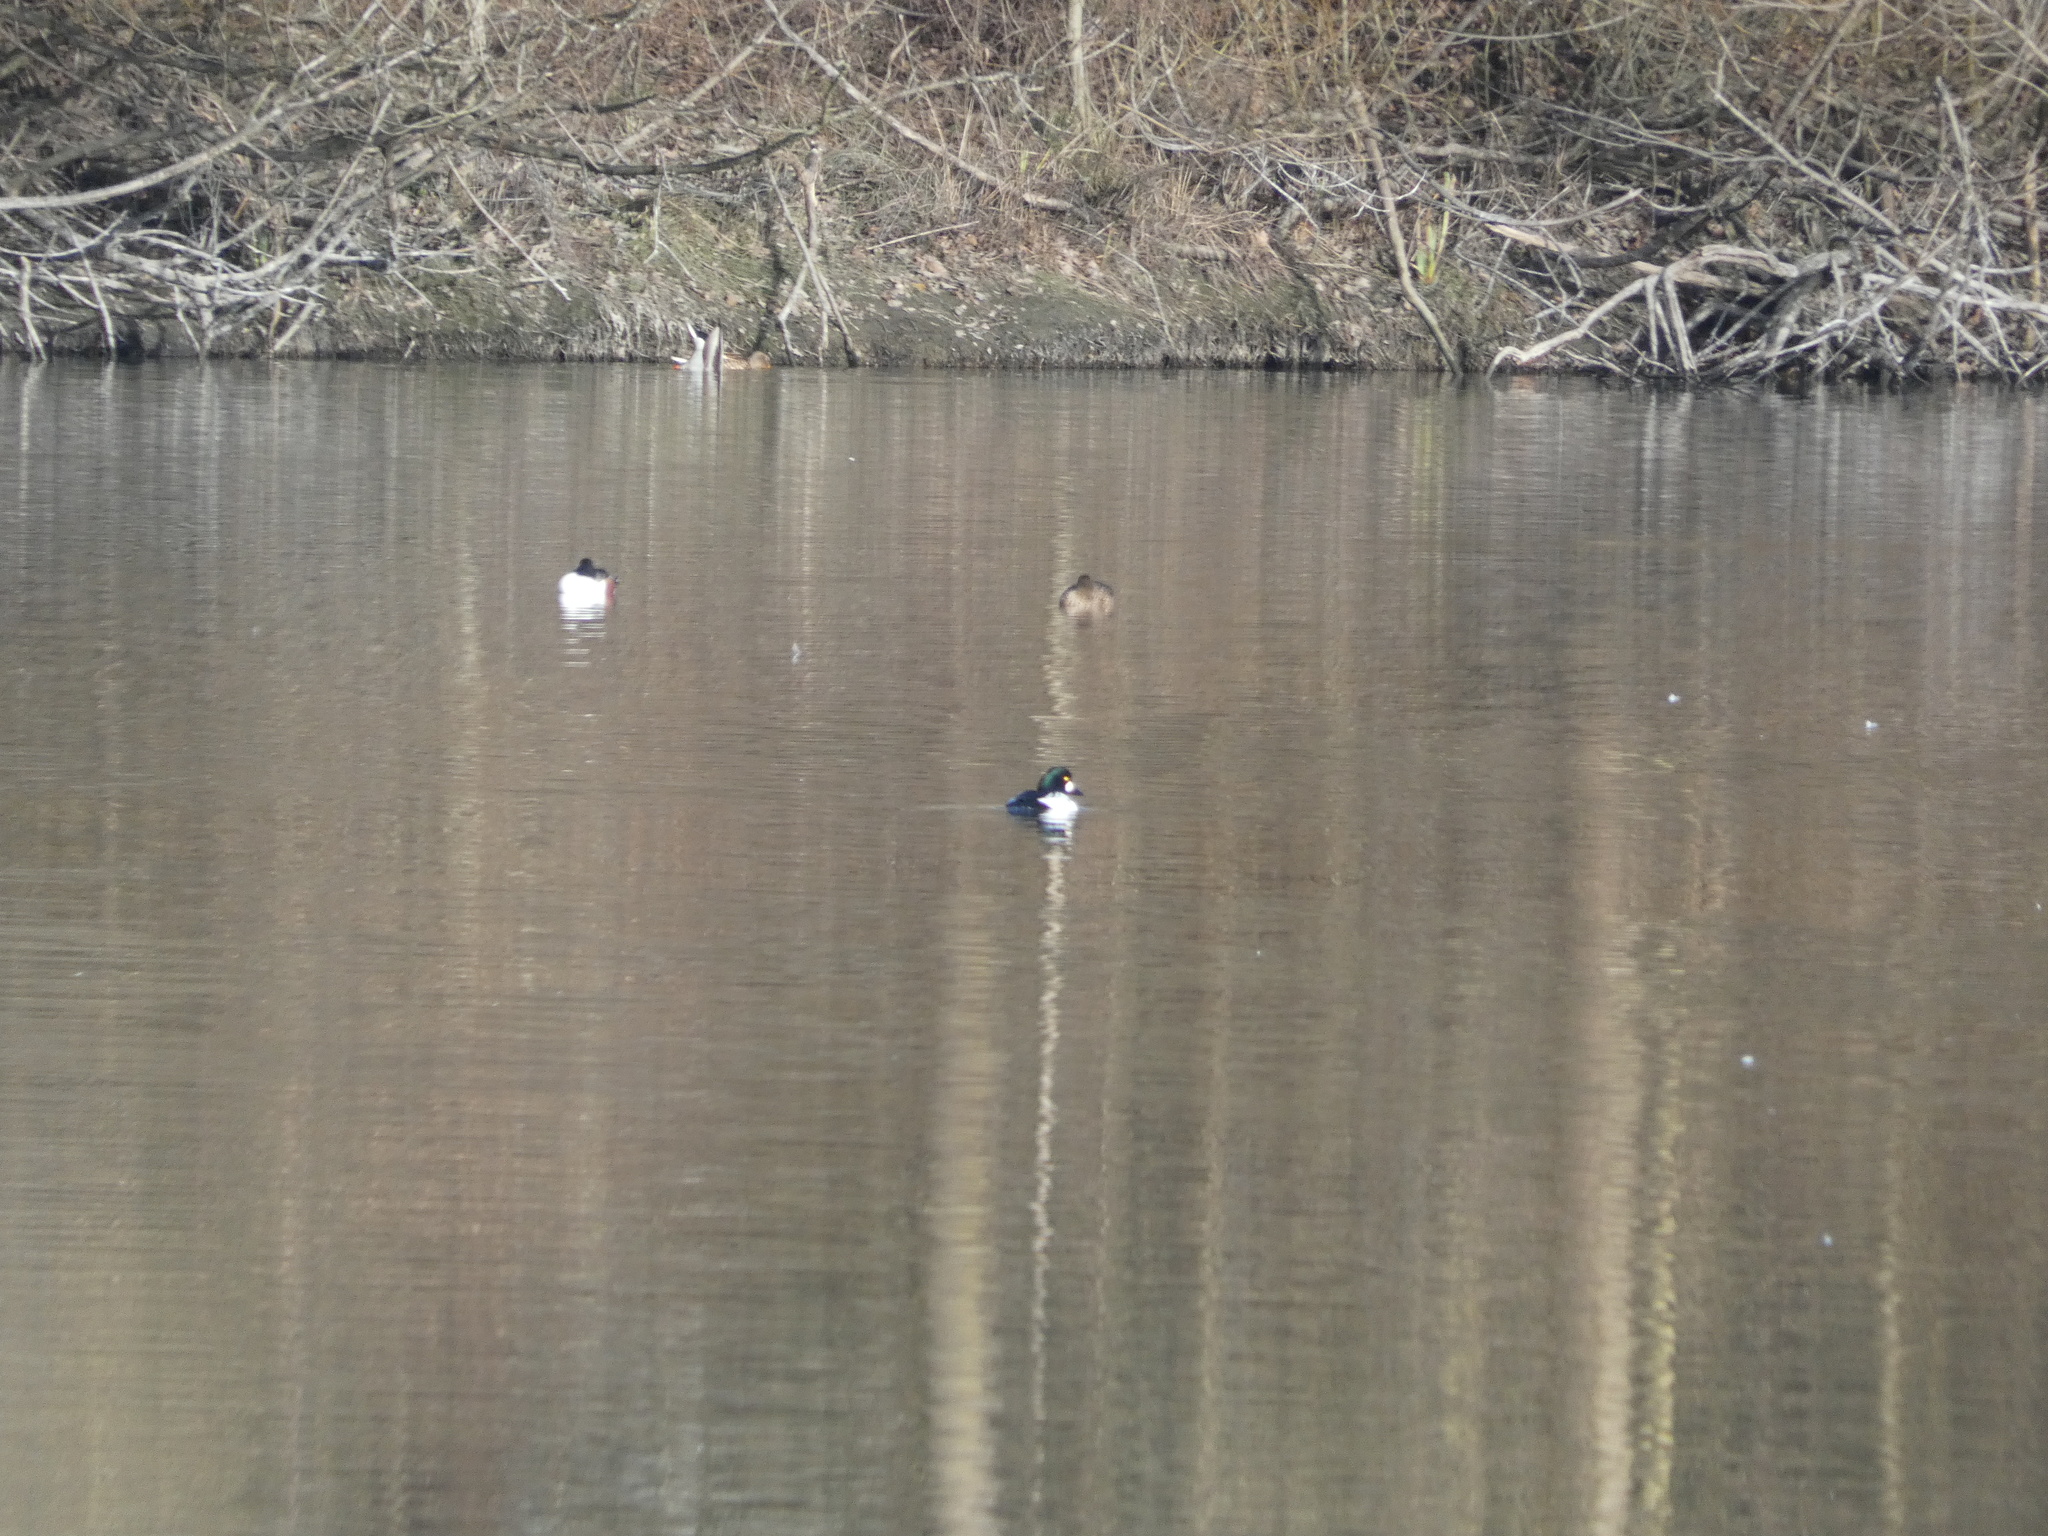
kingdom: Animalia
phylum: Chordata
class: Aves
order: Anseriformes
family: Anatidae
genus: Bucephala
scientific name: Bucephala clangula
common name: Common goldeneye
